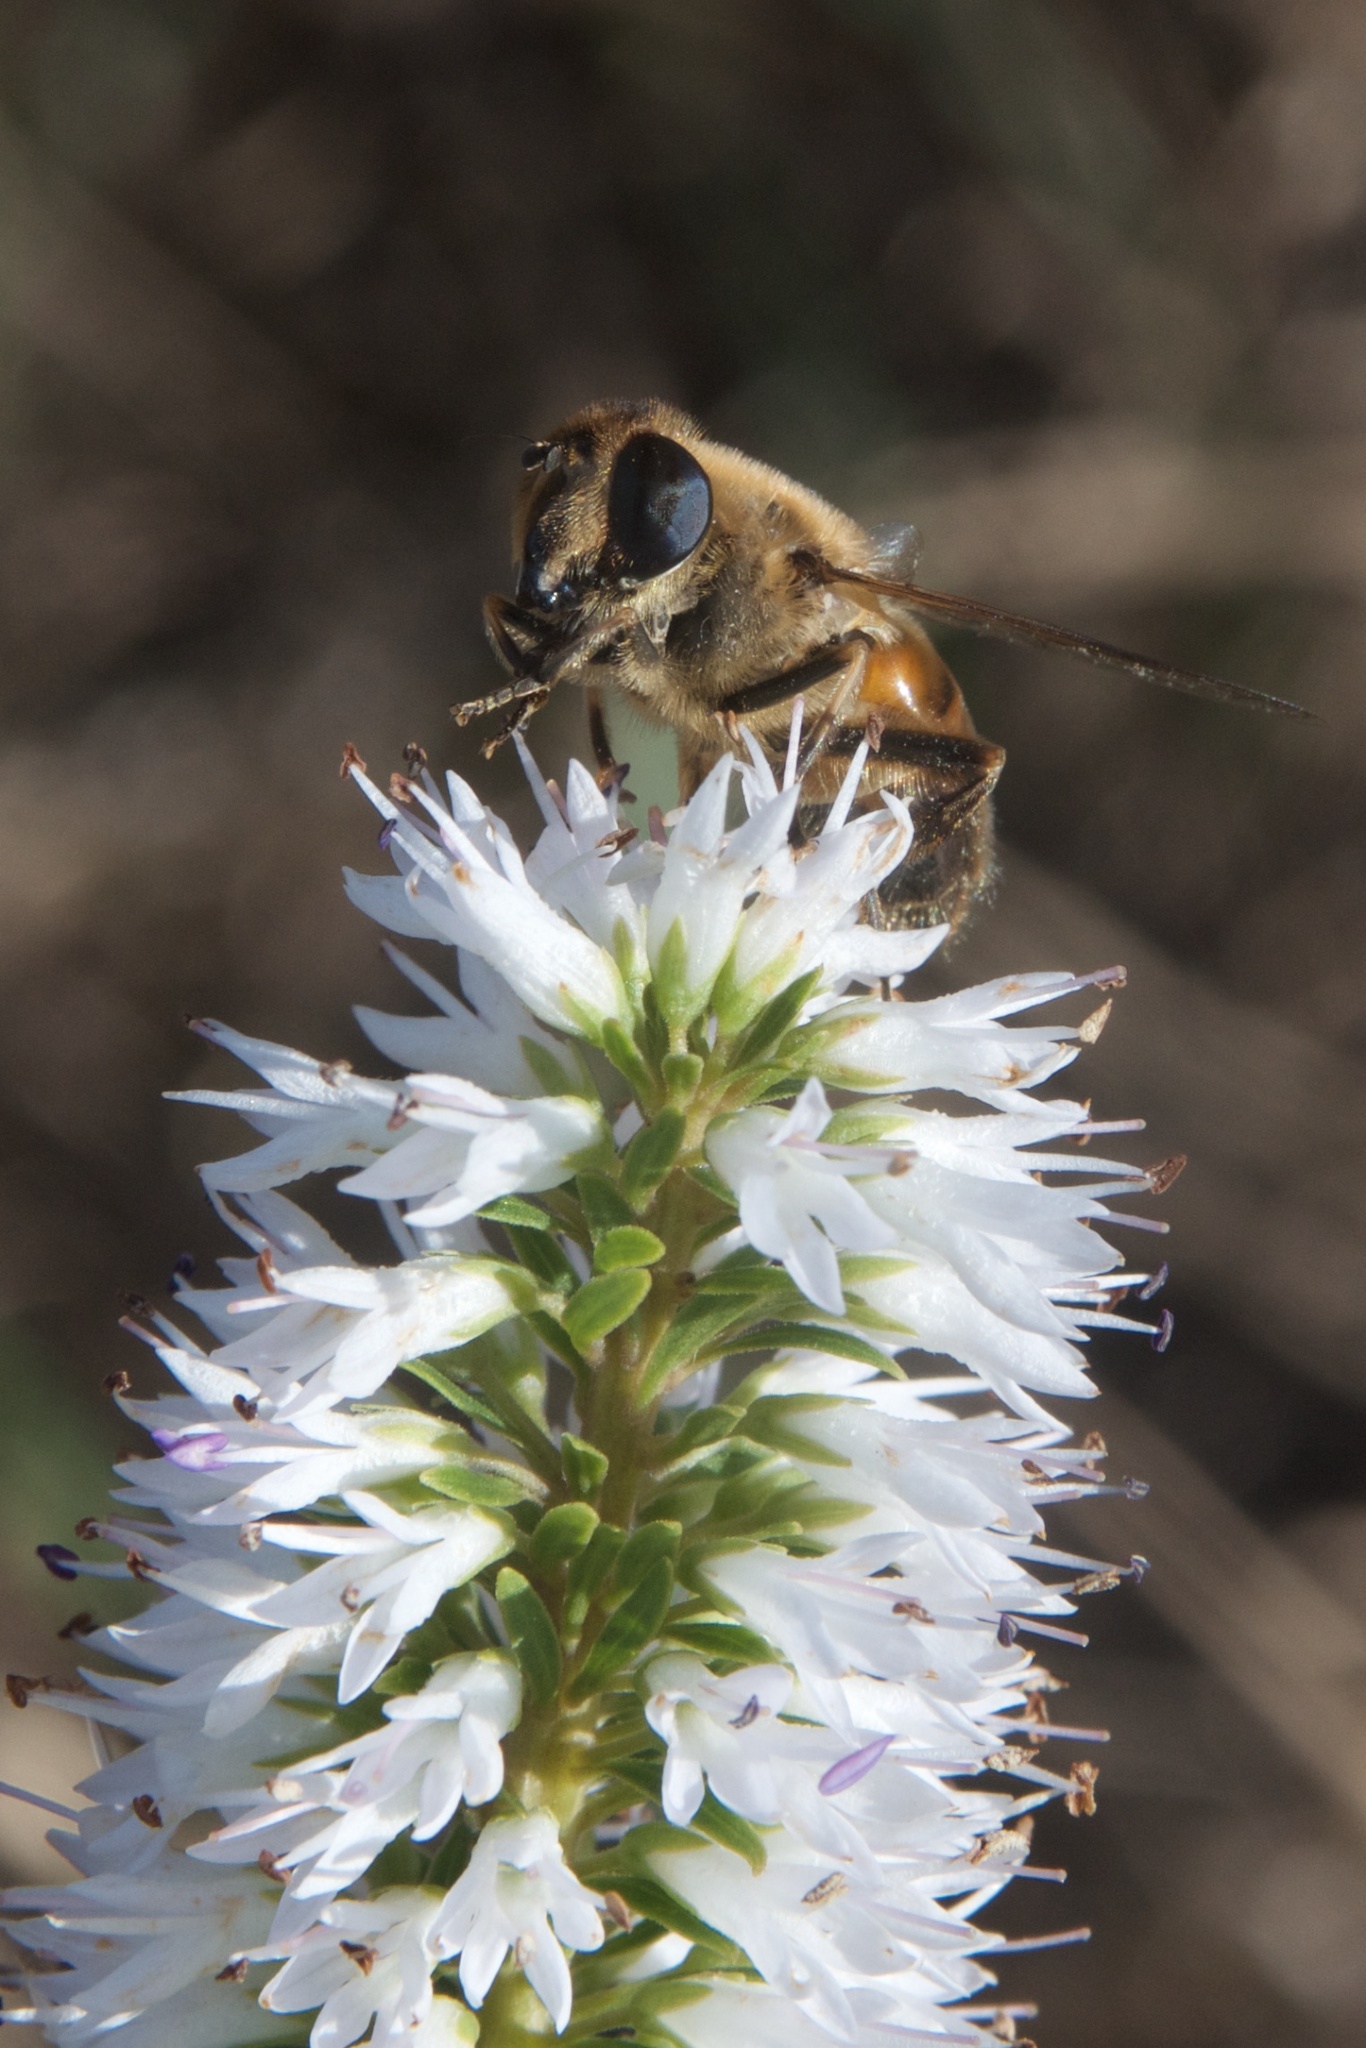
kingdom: Animalia
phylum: Arthropoda
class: Insecta
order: Diptera
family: Syrphidae
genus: Eristalis
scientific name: Eristalis tenax
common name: Drone fly
